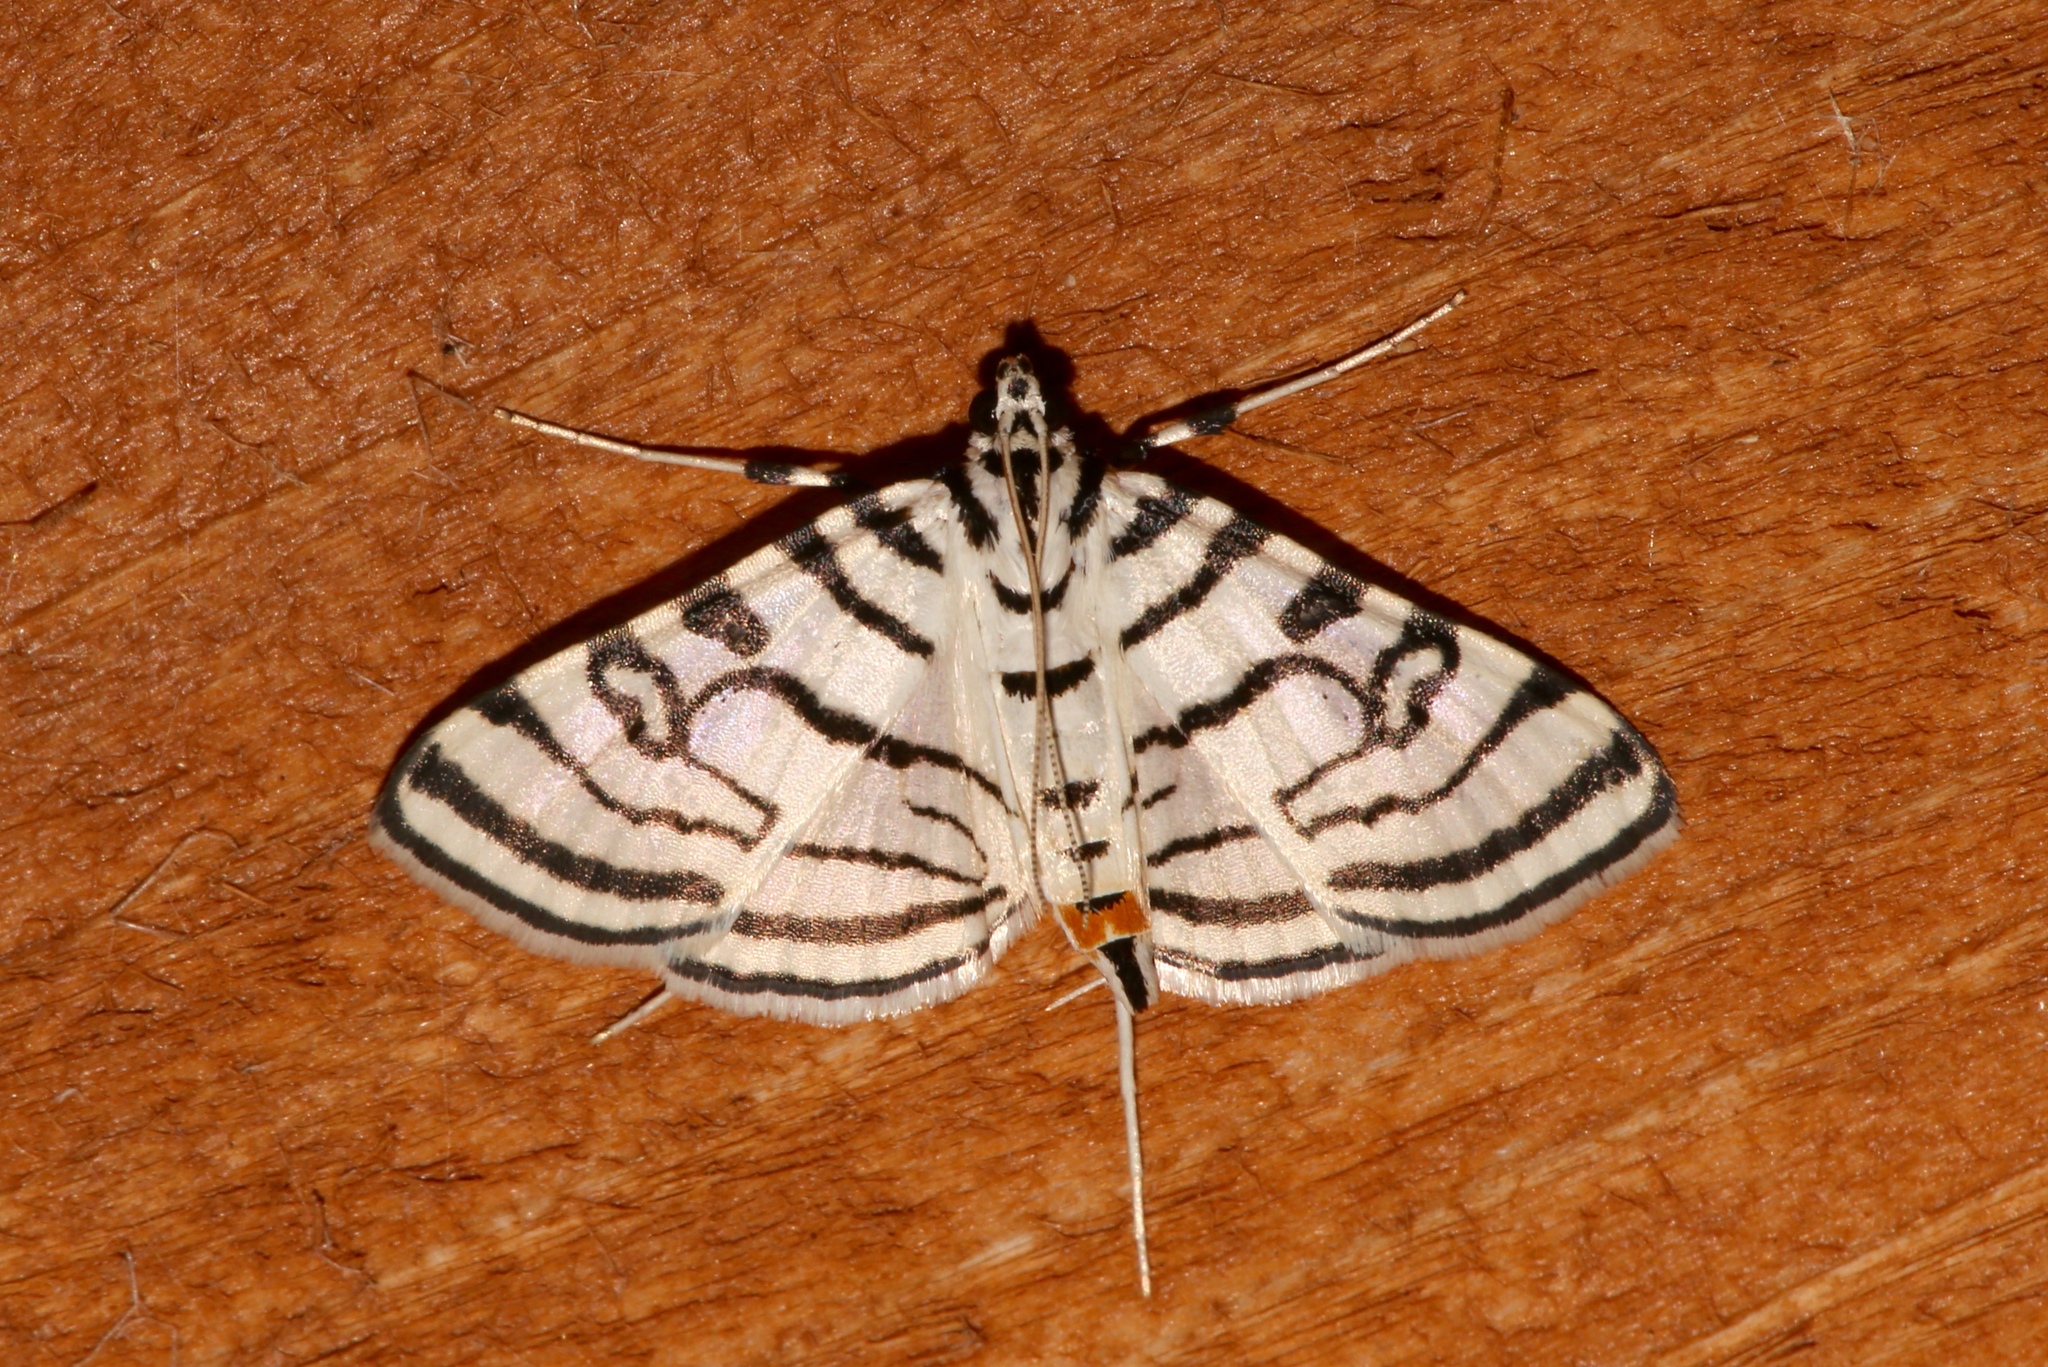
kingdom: Animalia
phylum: Arthropoda
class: Insecta
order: Lepidoptera
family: Crambidae
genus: Conchylodes
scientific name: Conchylodes ovulalis
